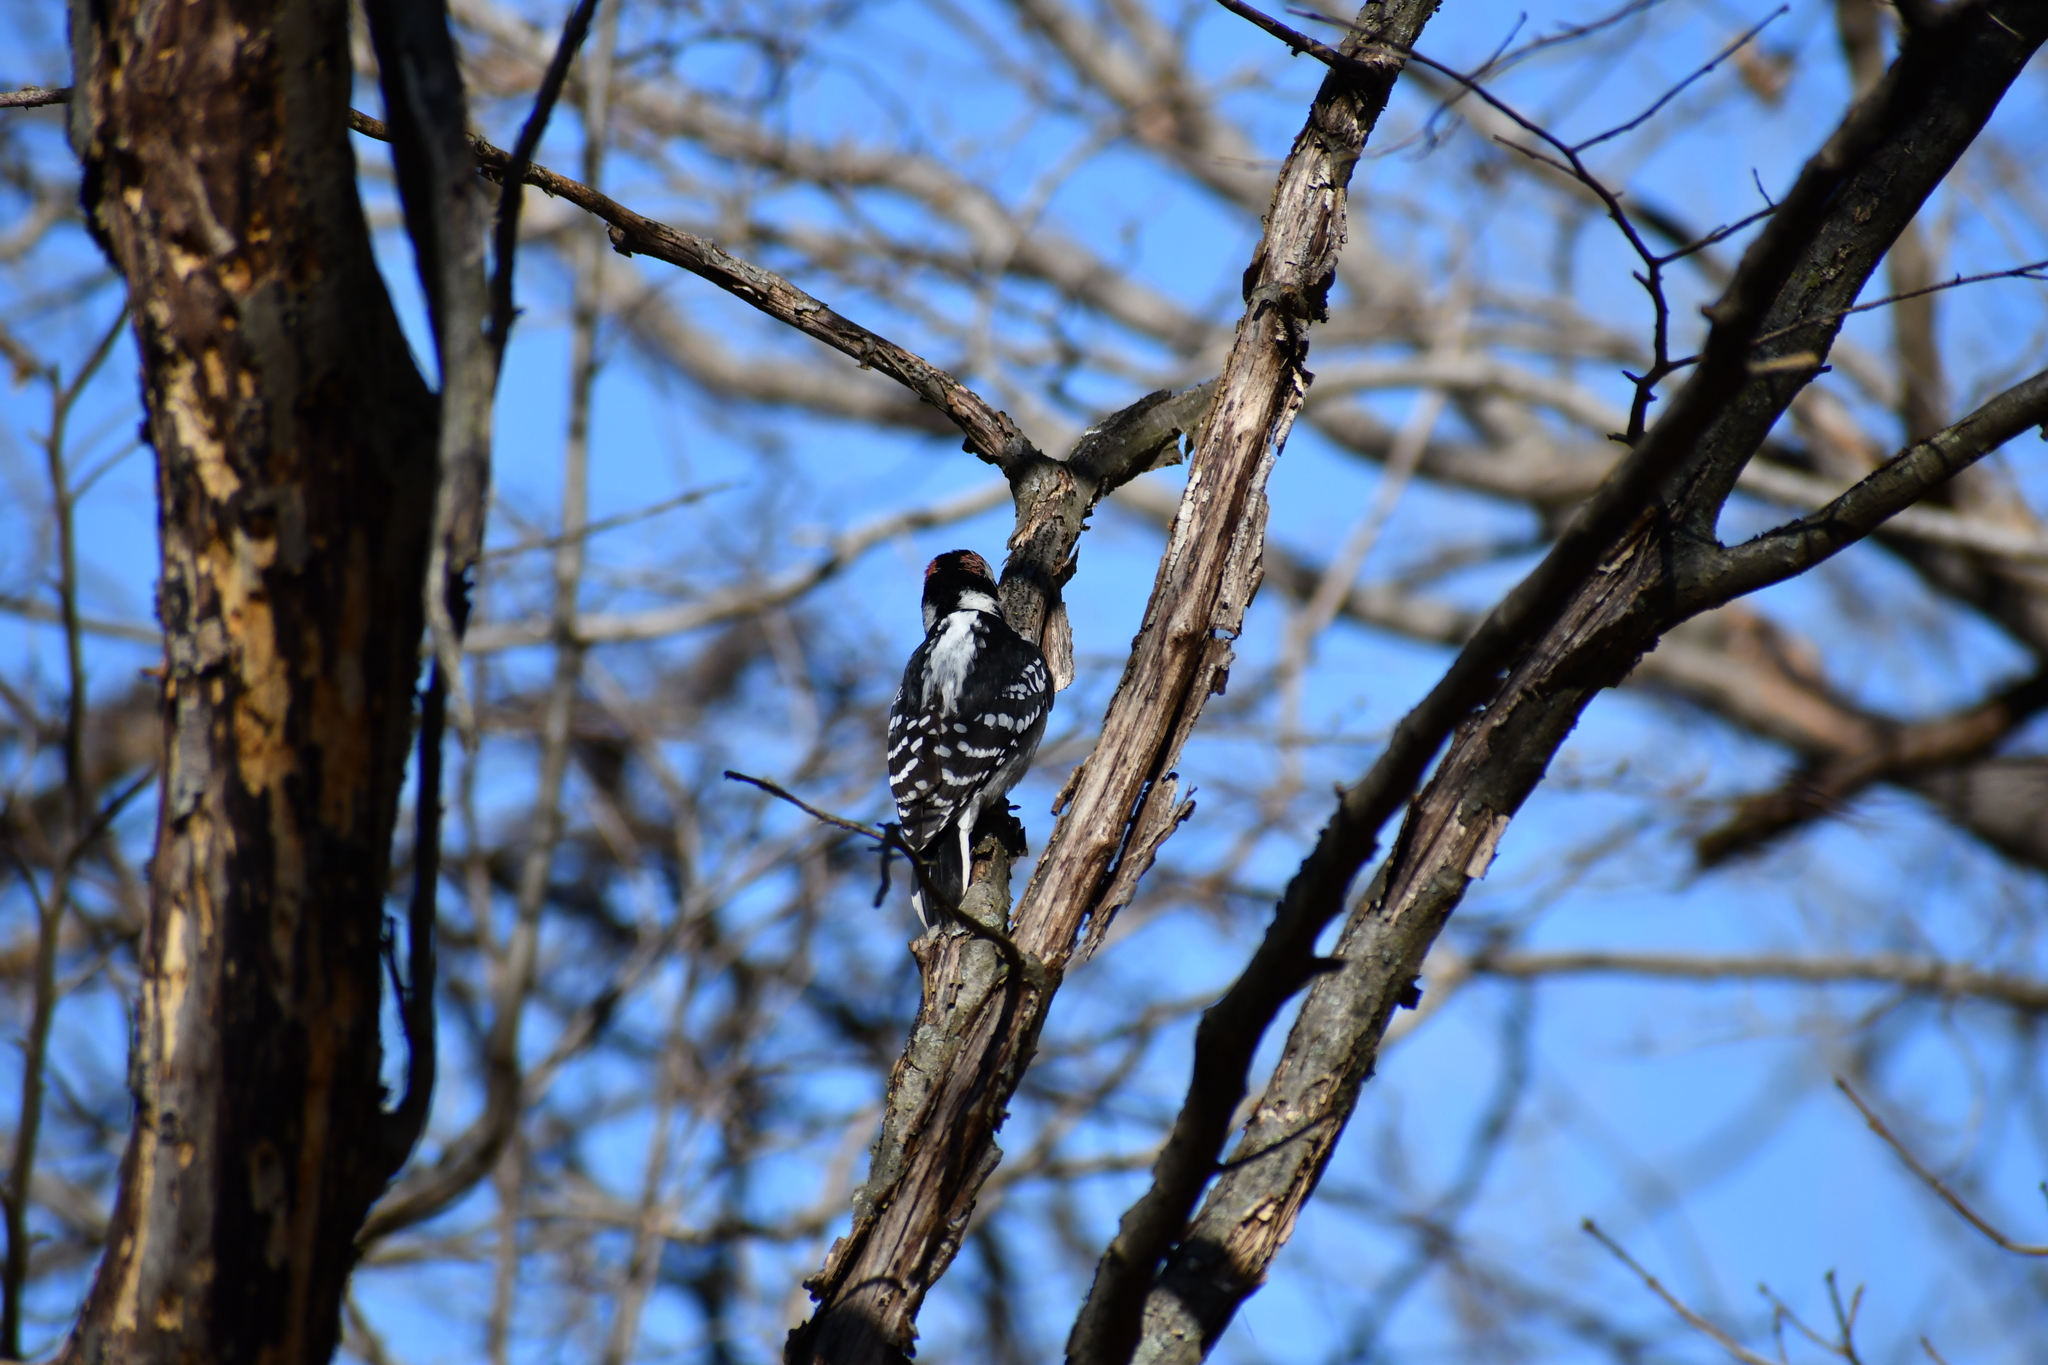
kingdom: Animalia
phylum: Chordata
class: Aves
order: Piciformes
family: Picidae
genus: Leuconotopicus
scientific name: Leuconotopicus villosus
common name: Hairy woodpecker
